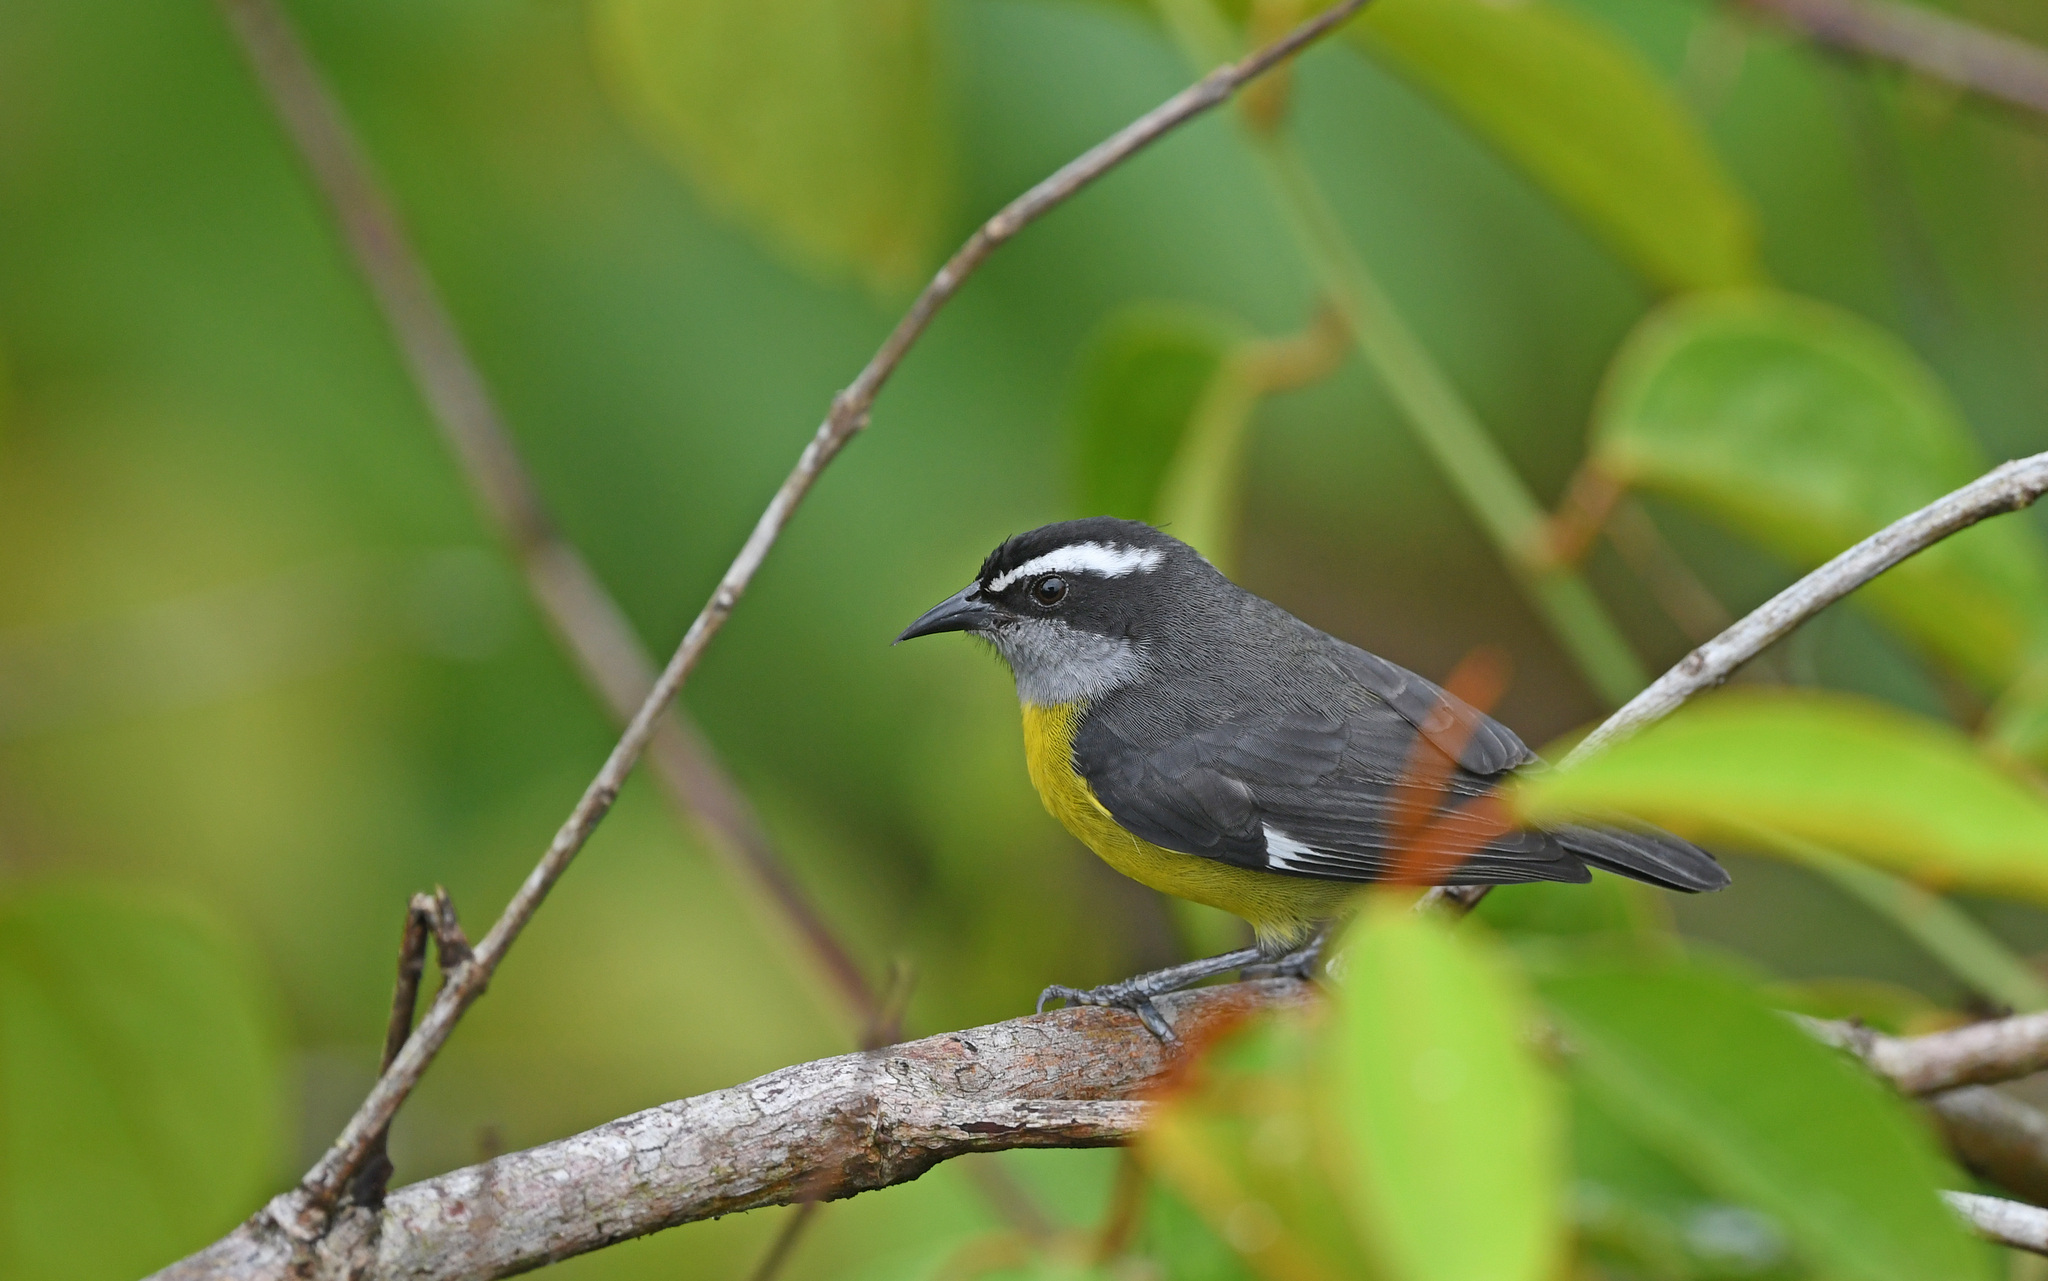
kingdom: Animalia
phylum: Chordata
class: Aves
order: Passeriformes
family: Thraupidae
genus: Coereba
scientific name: Coereba flaveola
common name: Bananaquit
